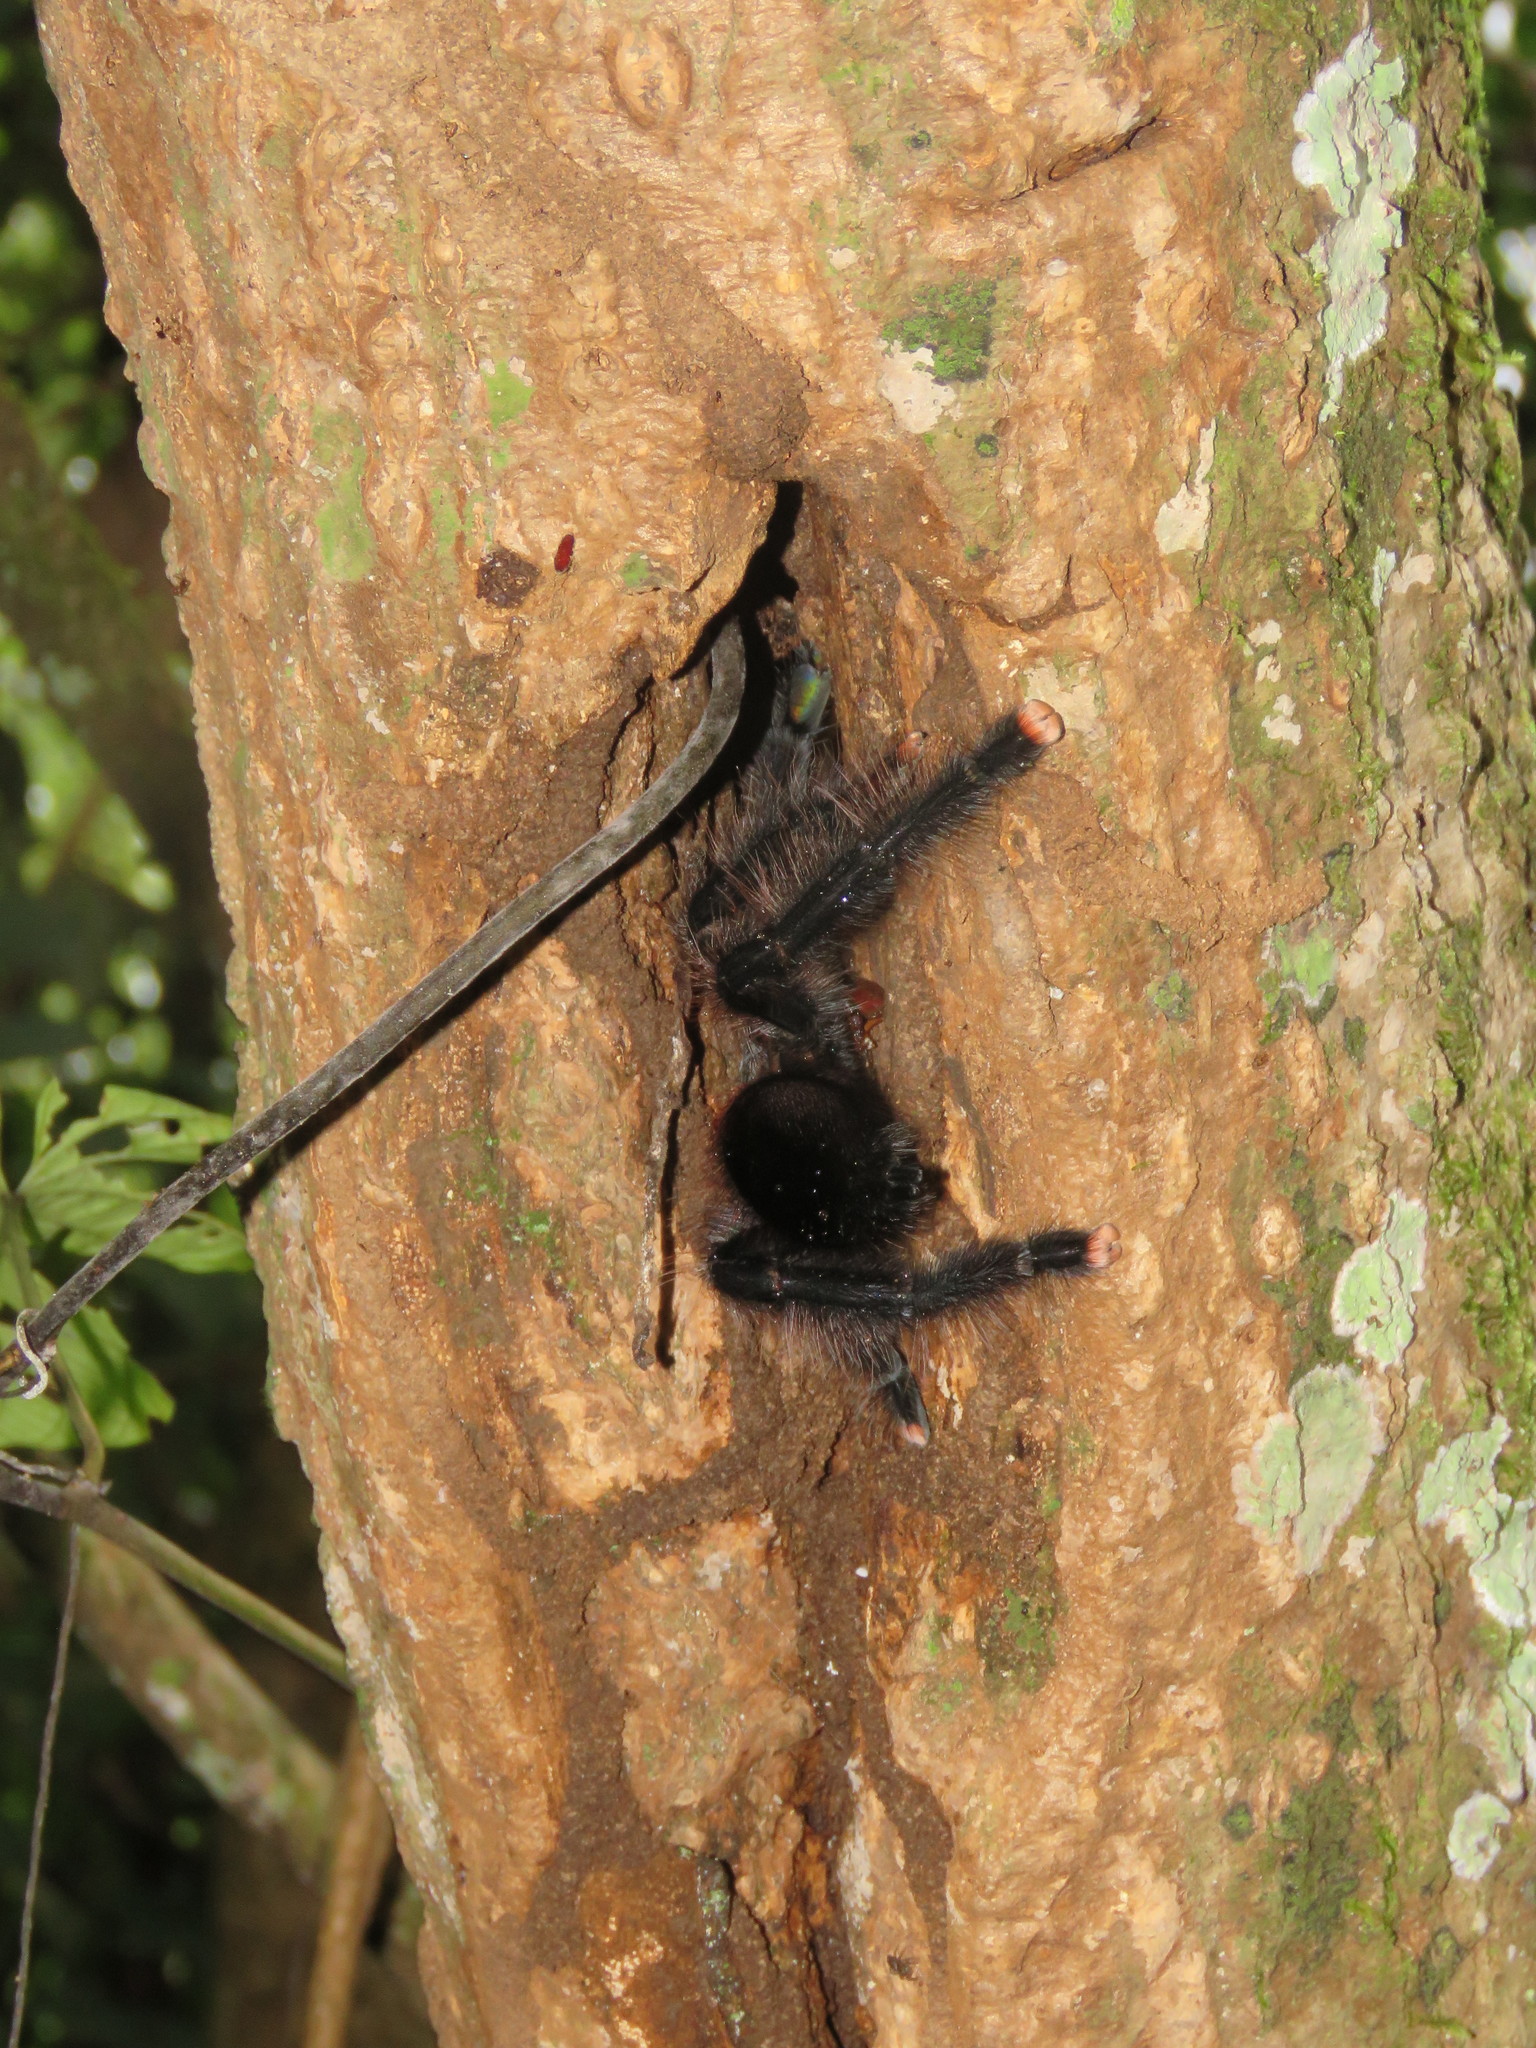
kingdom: Animalia
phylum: Arthropoda
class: Arachnida
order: Araneae
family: Theraphosidae
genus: Avicularia
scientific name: Avicularia avicularia
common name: Tarantula spiders
